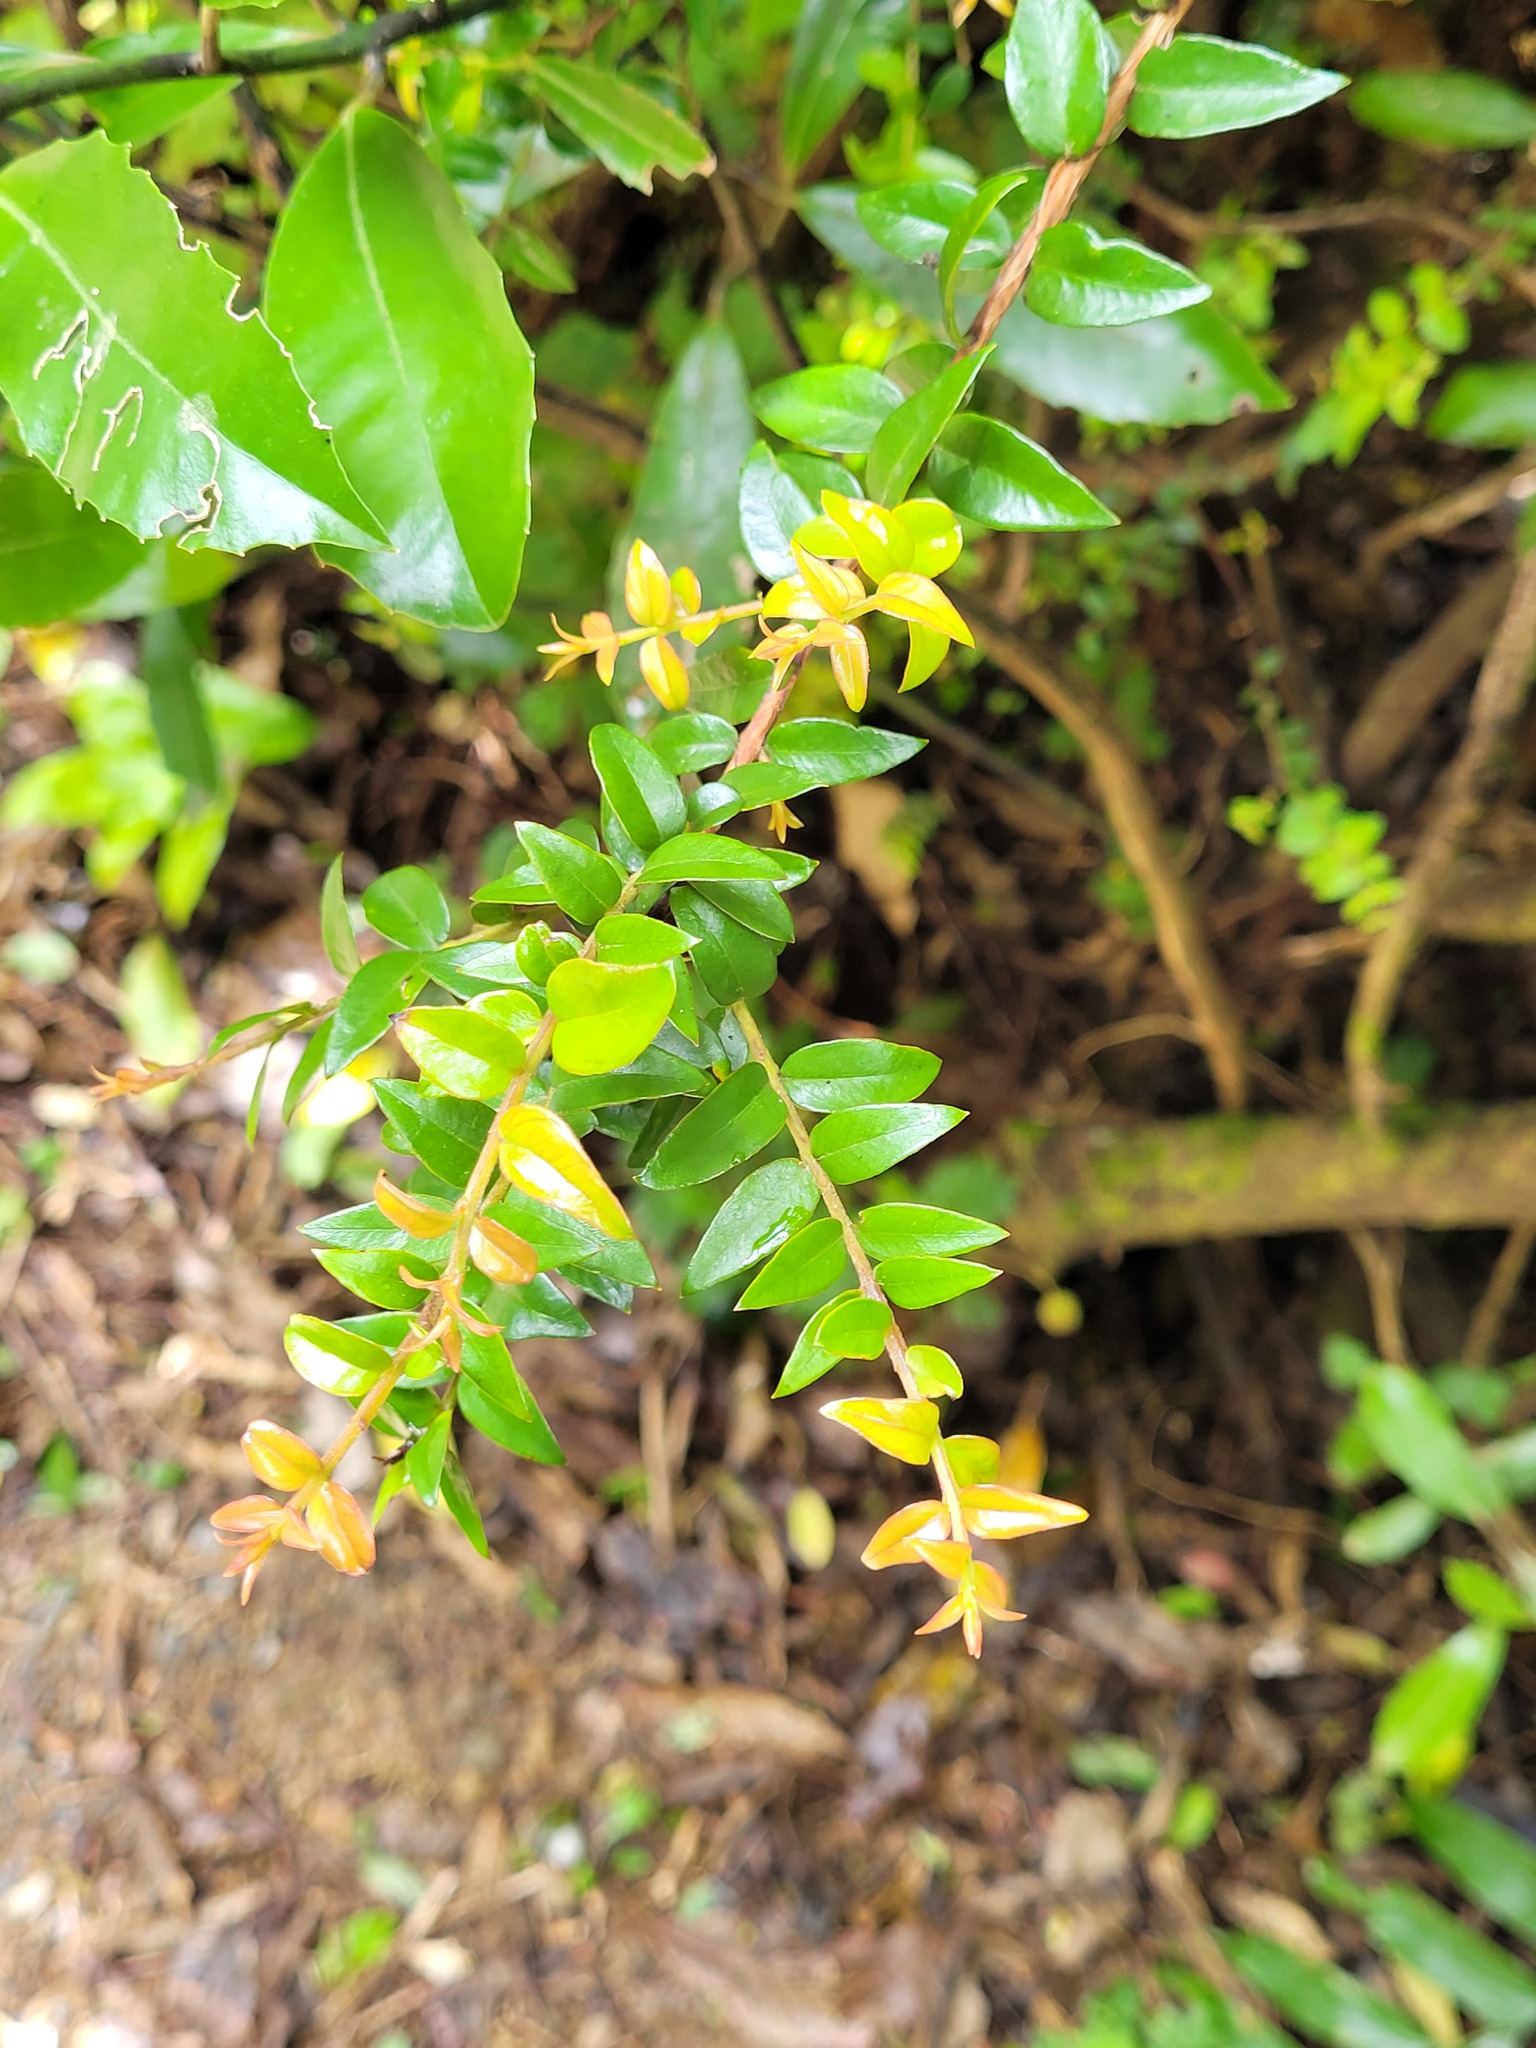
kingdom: Plantae
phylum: Tracheophyta
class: Magnoliopsida
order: Myrtales
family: Myrtaceae
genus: Metrosideros
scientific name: Metrosideros diffusa
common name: Small ratavine
